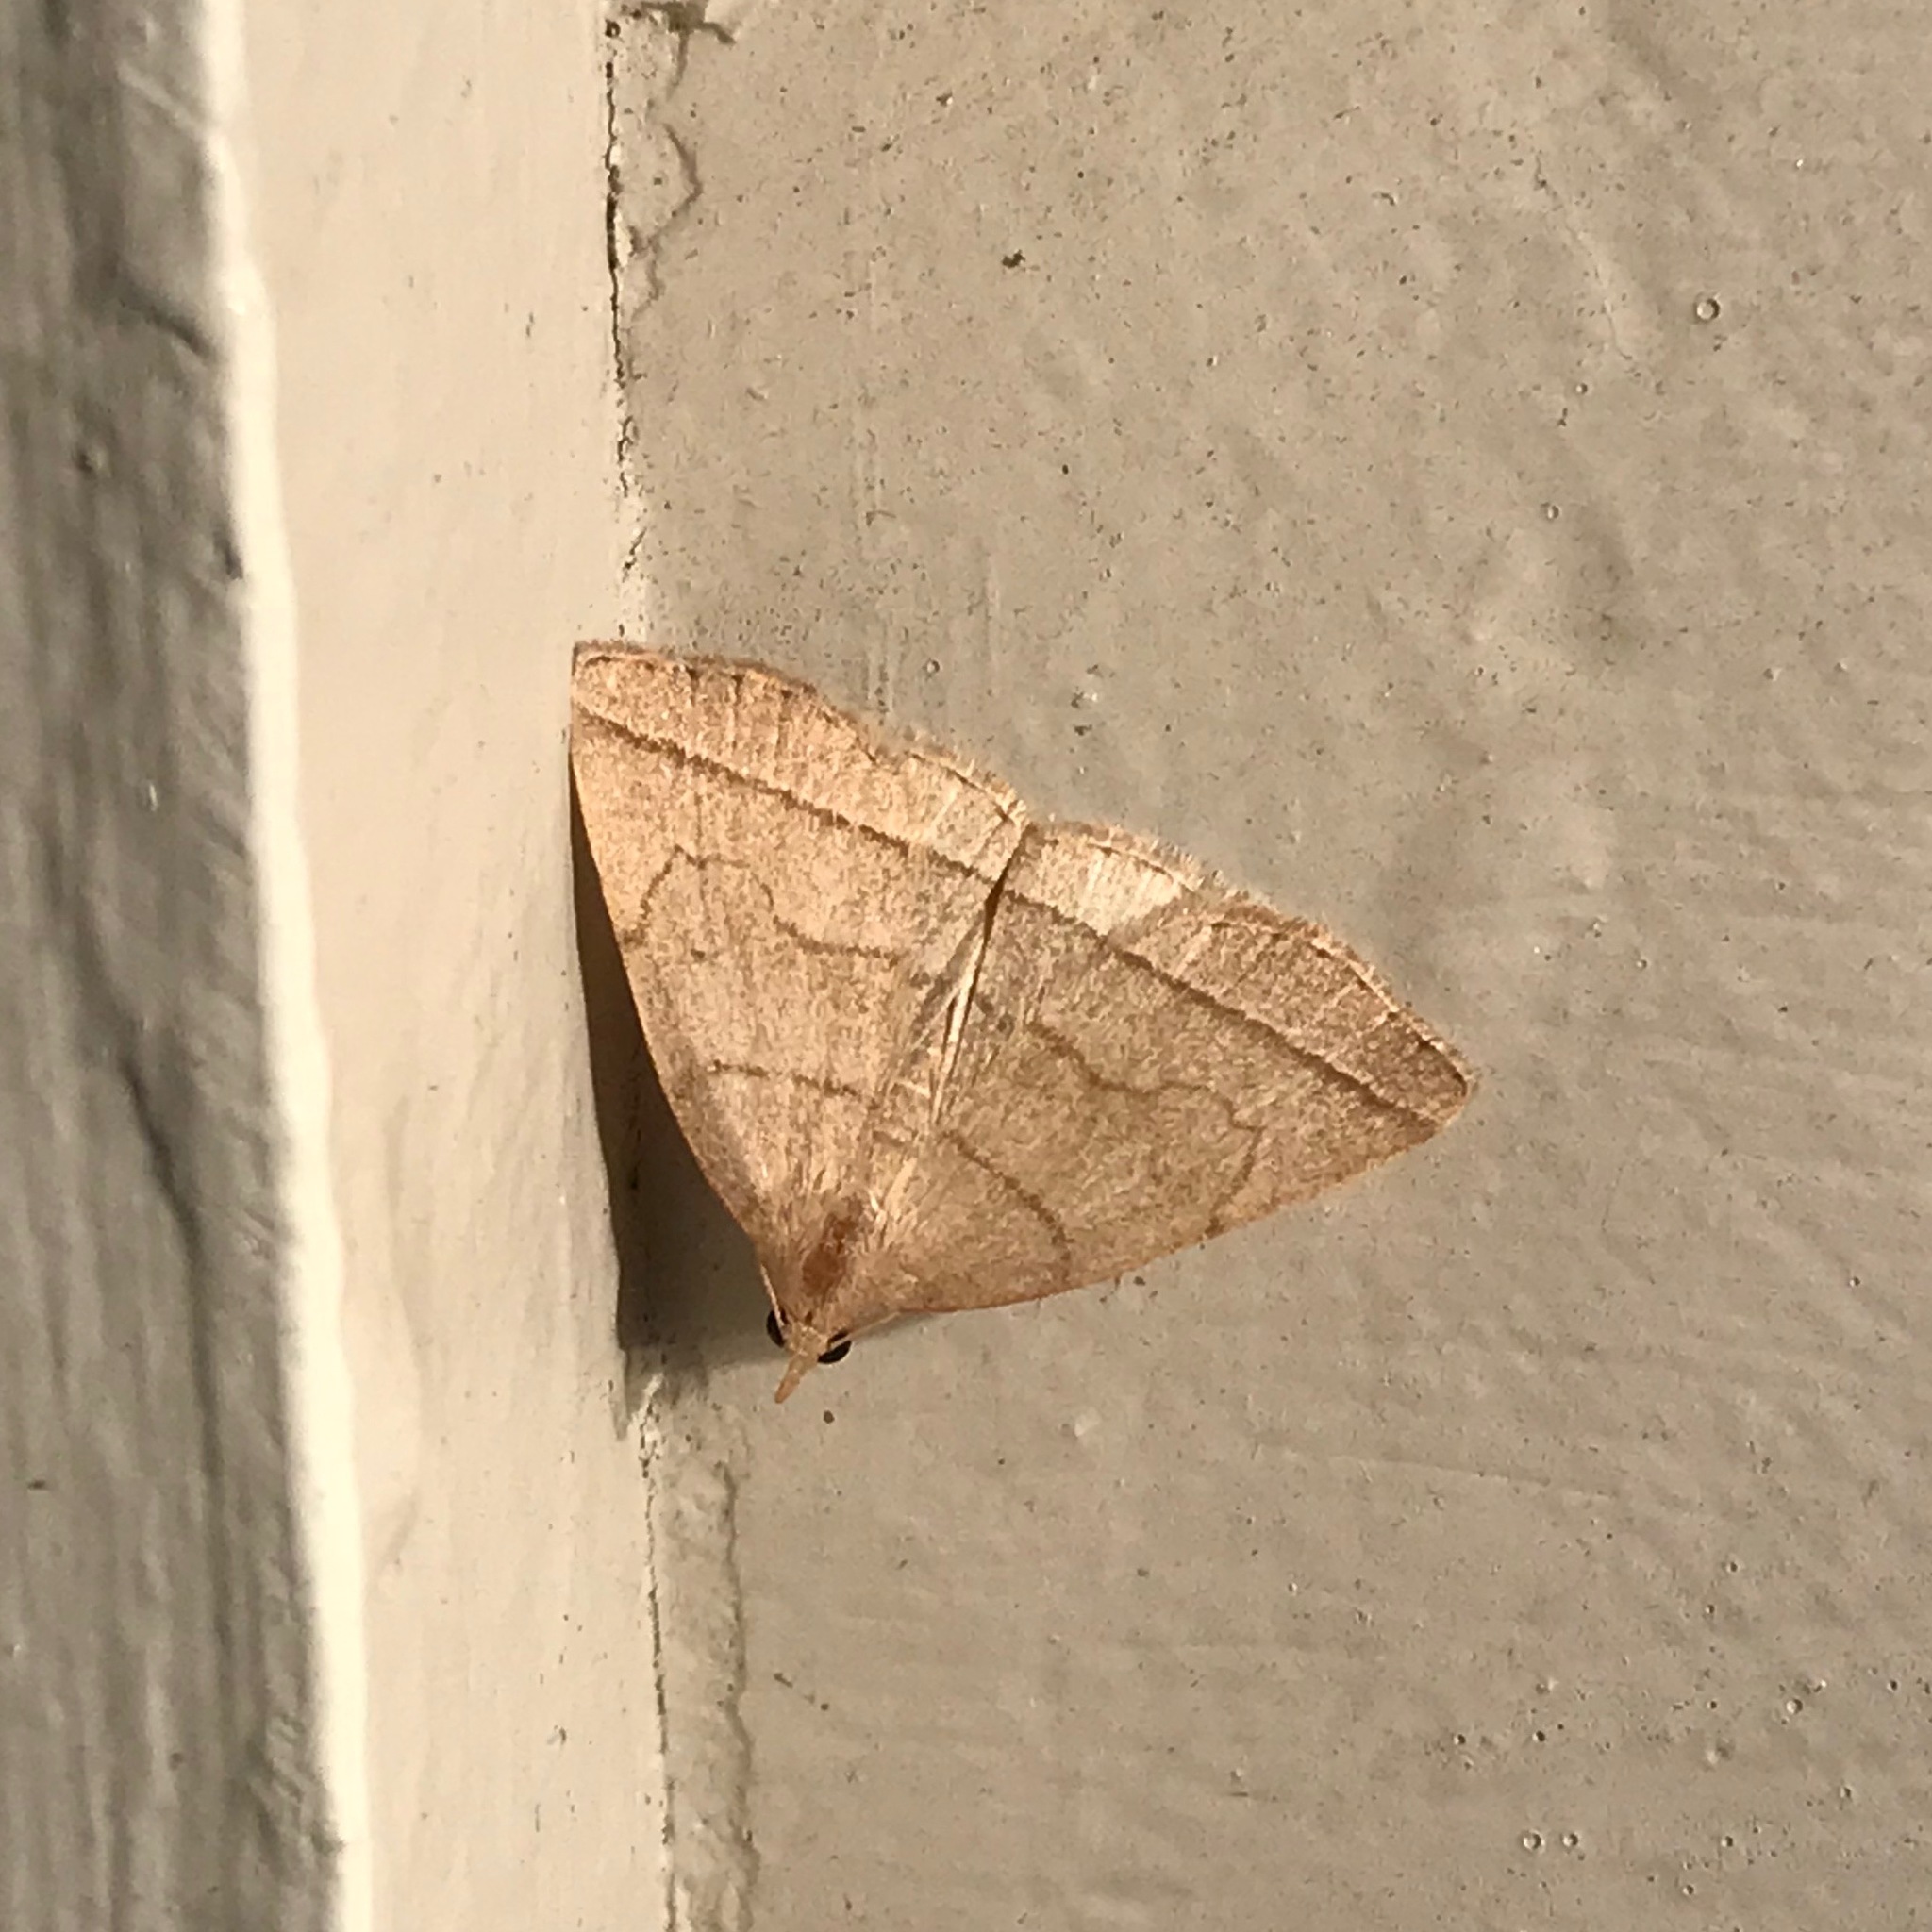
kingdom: Animalia
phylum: Arthropoda
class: Insecta
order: Lepidoptera
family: Erebidae
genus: Zanclognatha
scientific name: Zanclognatha cruralis
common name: Early fan-foot
